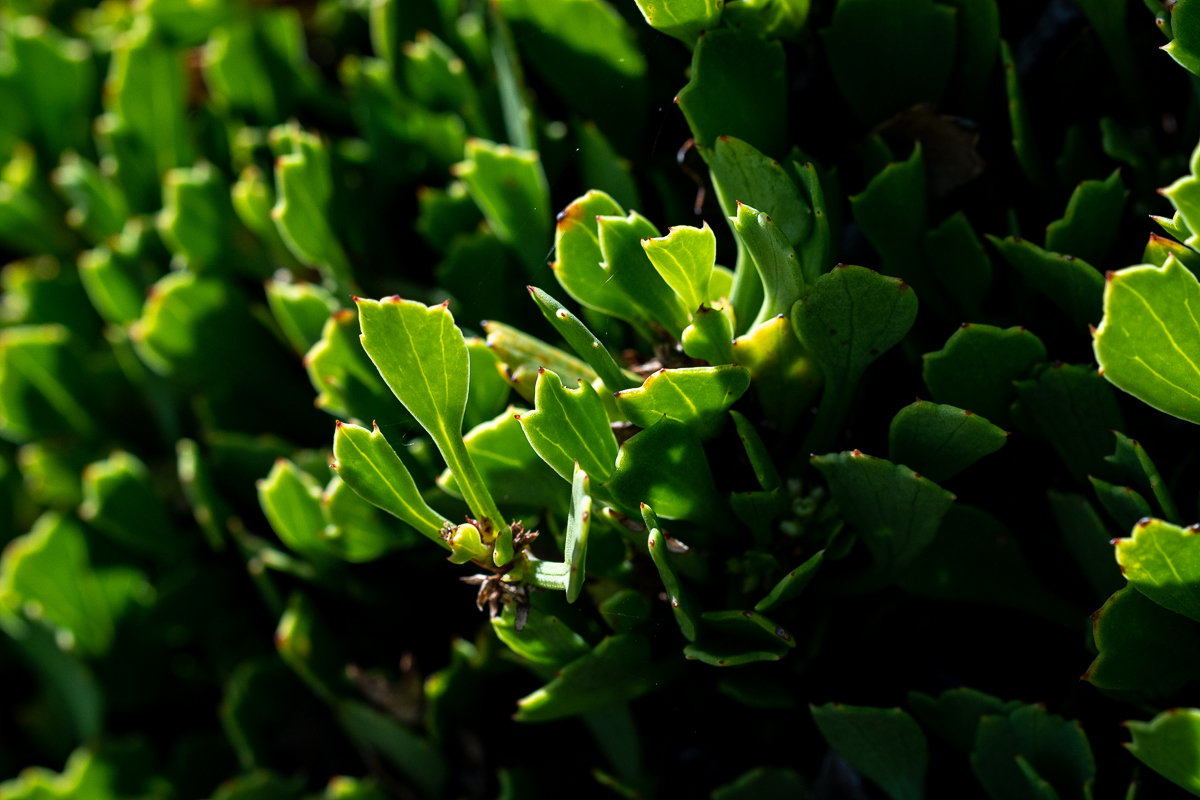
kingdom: Plantae
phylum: Tracheophyta
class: Magnoliopsida
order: Apiales
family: Apiaceae
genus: Centella
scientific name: Centella triloba
